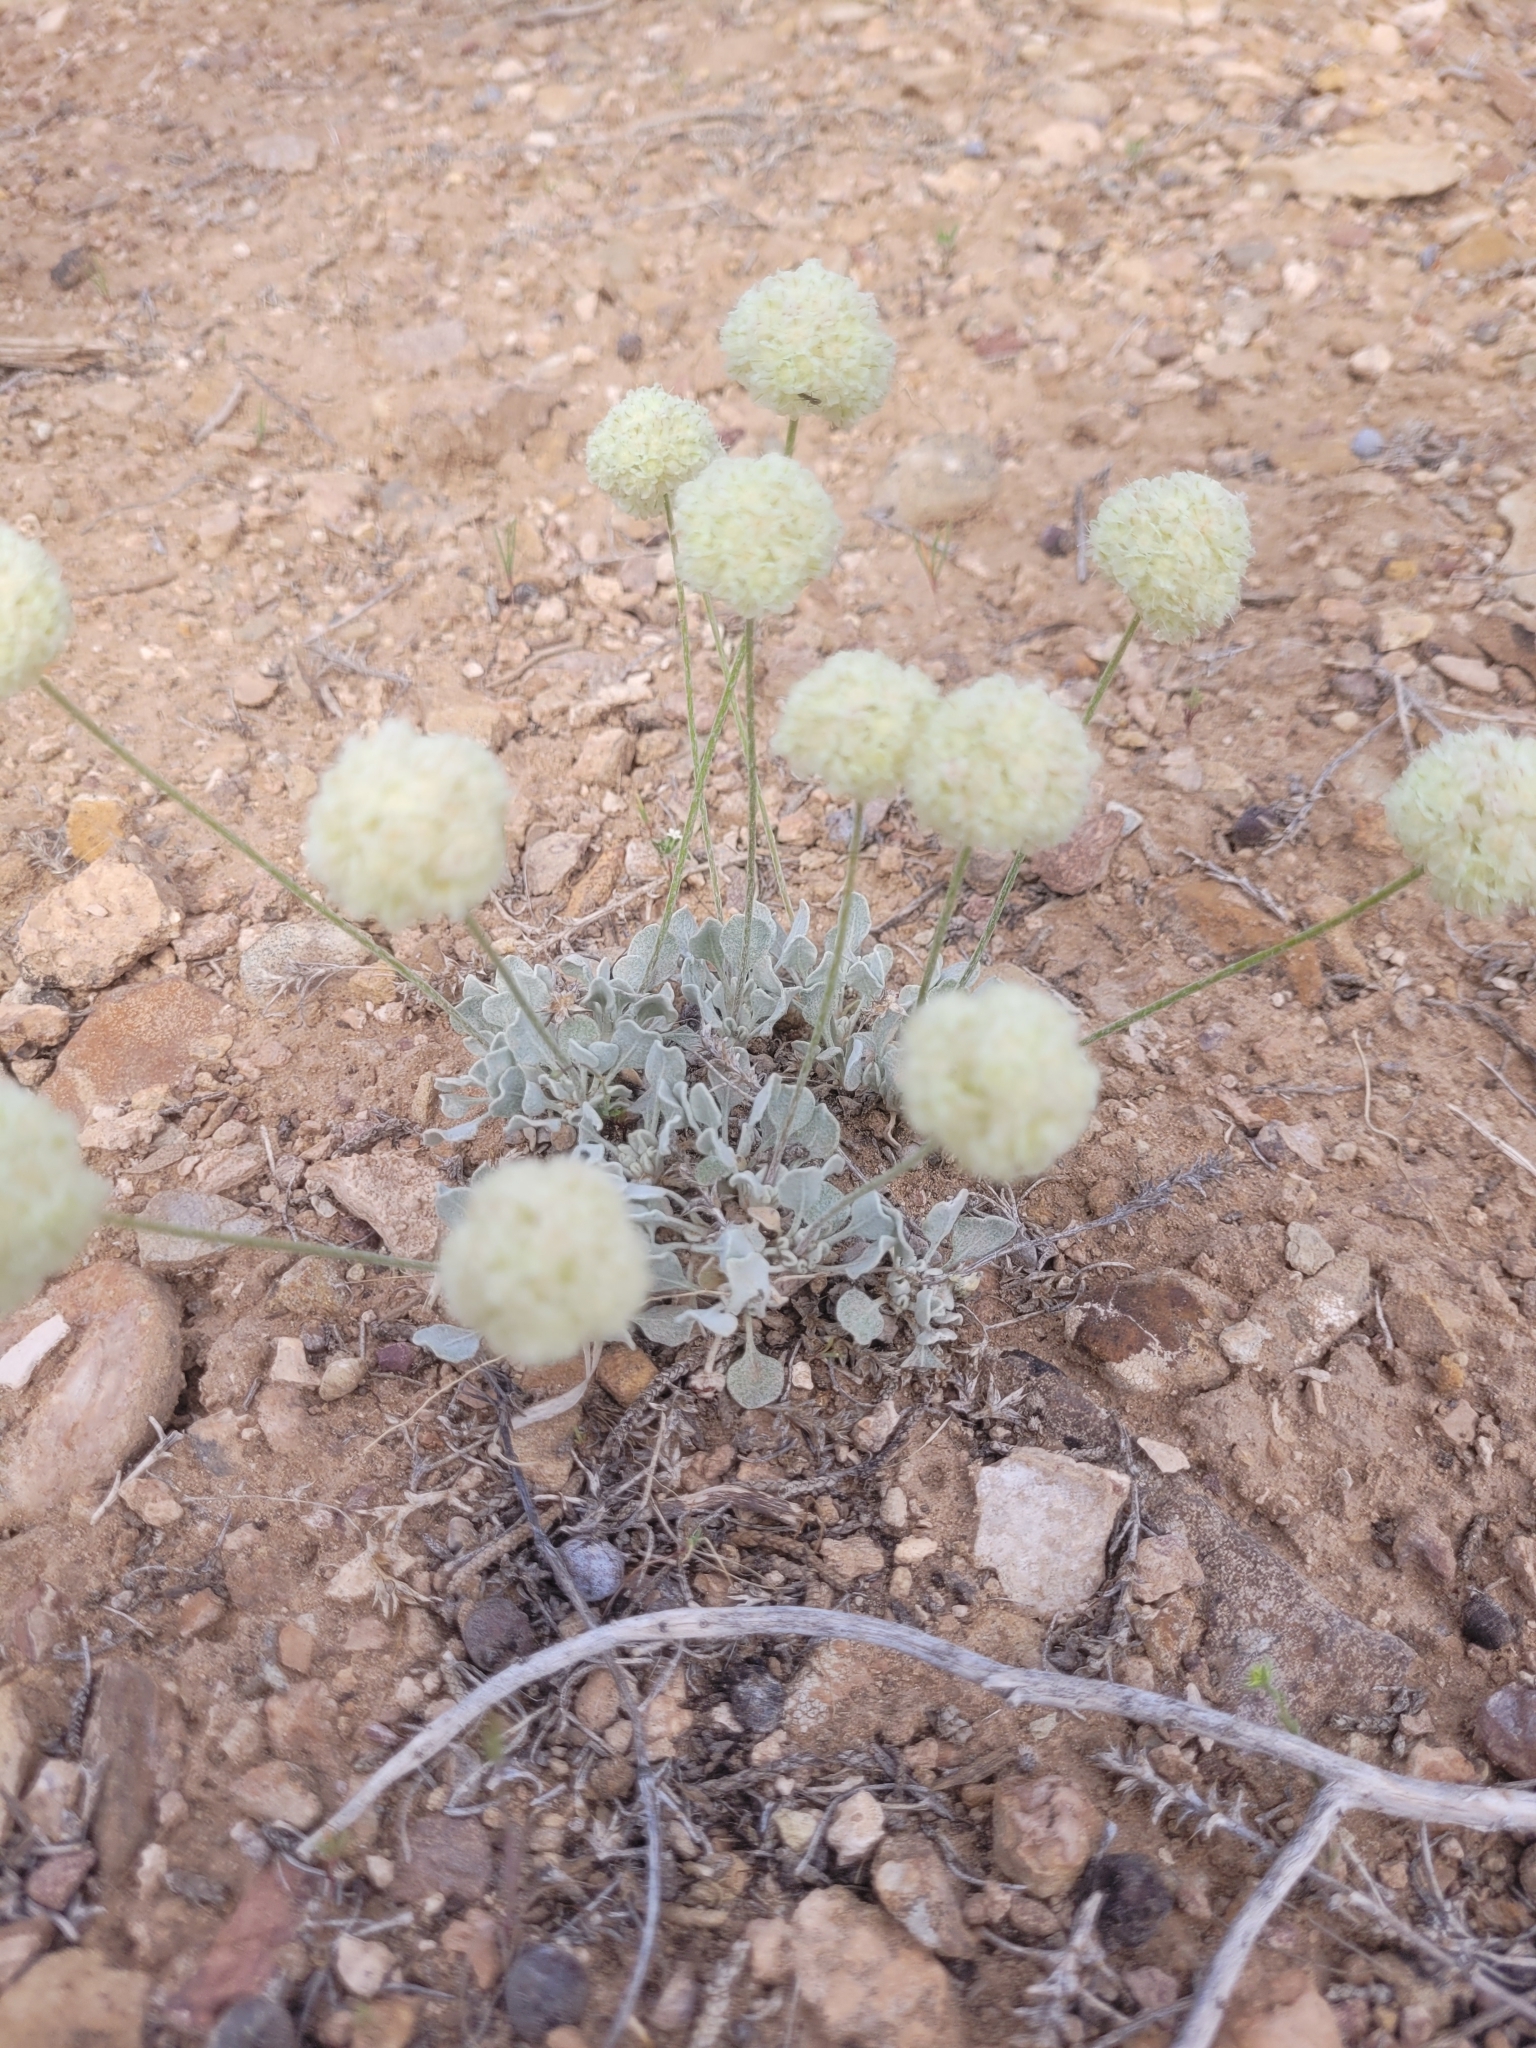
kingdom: Plantae
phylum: Tracheophyta
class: Magnoliopsida
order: Caryophyllales
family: Polygonaceae
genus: Eriogonum
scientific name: Eriogonum ovalifolium
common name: Cushion buckwheat
